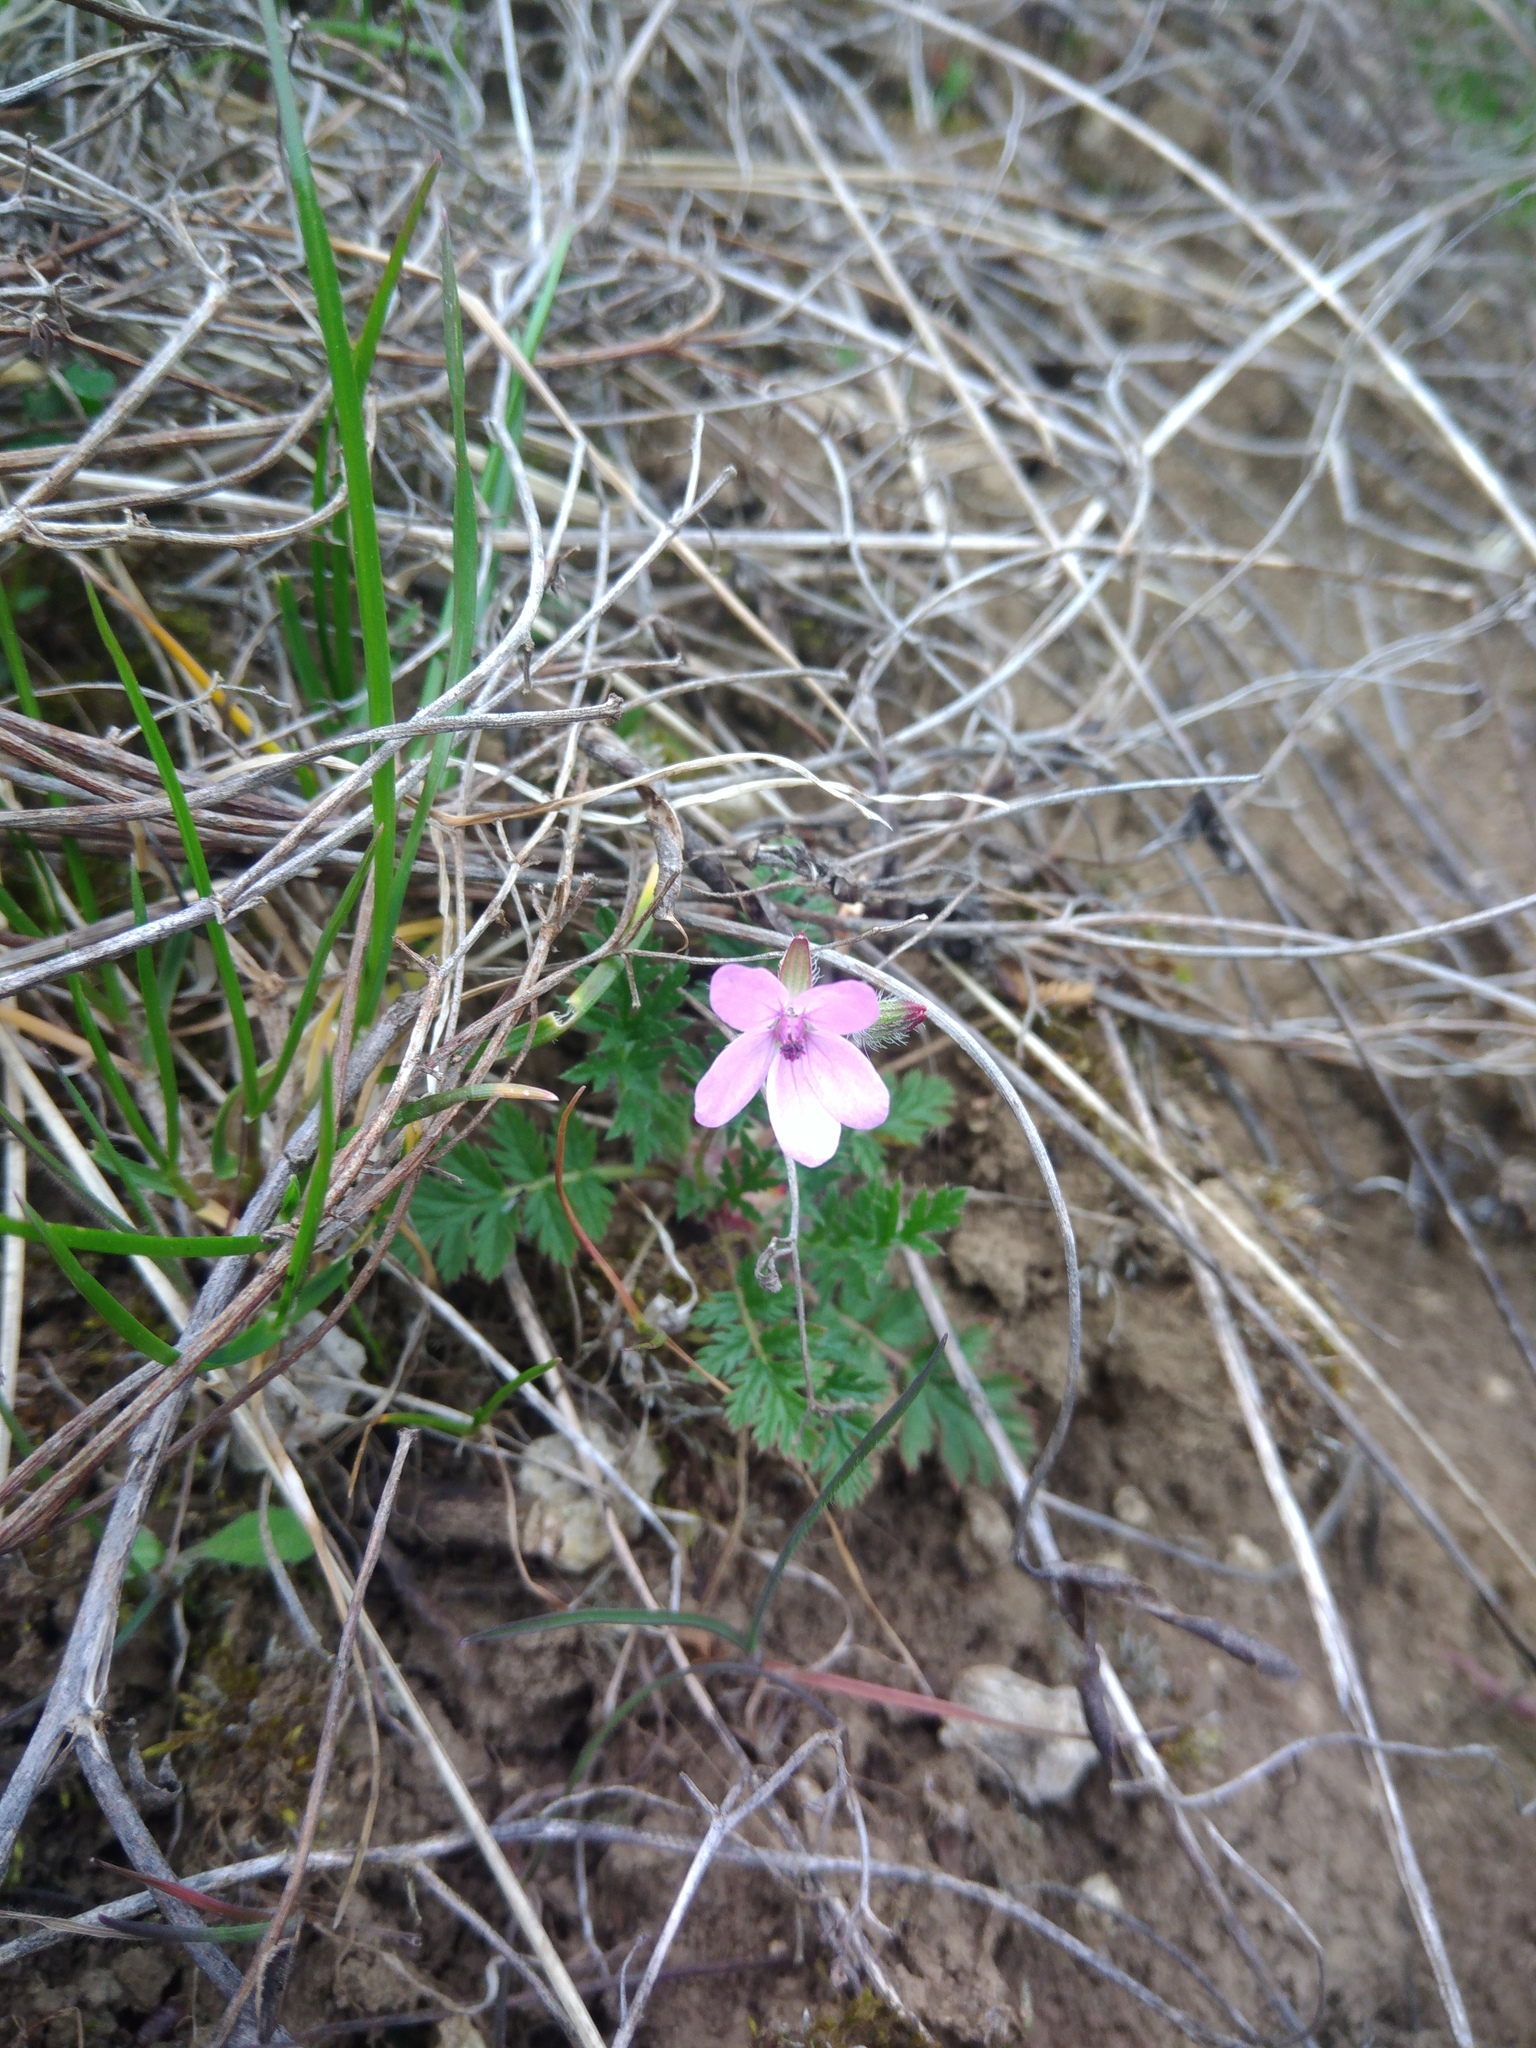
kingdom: Plantae
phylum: Tracheophyta
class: Magnoliopsida
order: Geraniales
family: Geraniaceae
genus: Erodium
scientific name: Erodium cicutarium
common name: Common stork's-bill
